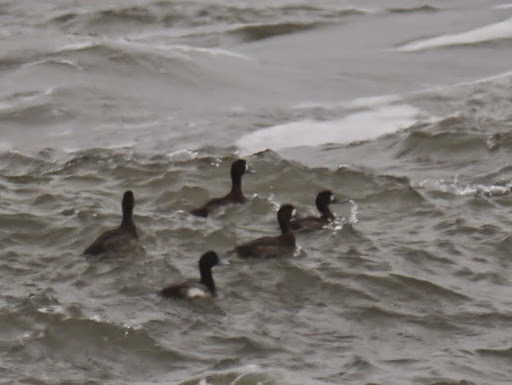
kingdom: Animalia
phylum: Chordata
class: Aves
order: Anseriformes
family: Anatidae
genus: Aythya
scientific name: Aythya affinis
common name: Lesser scaup
